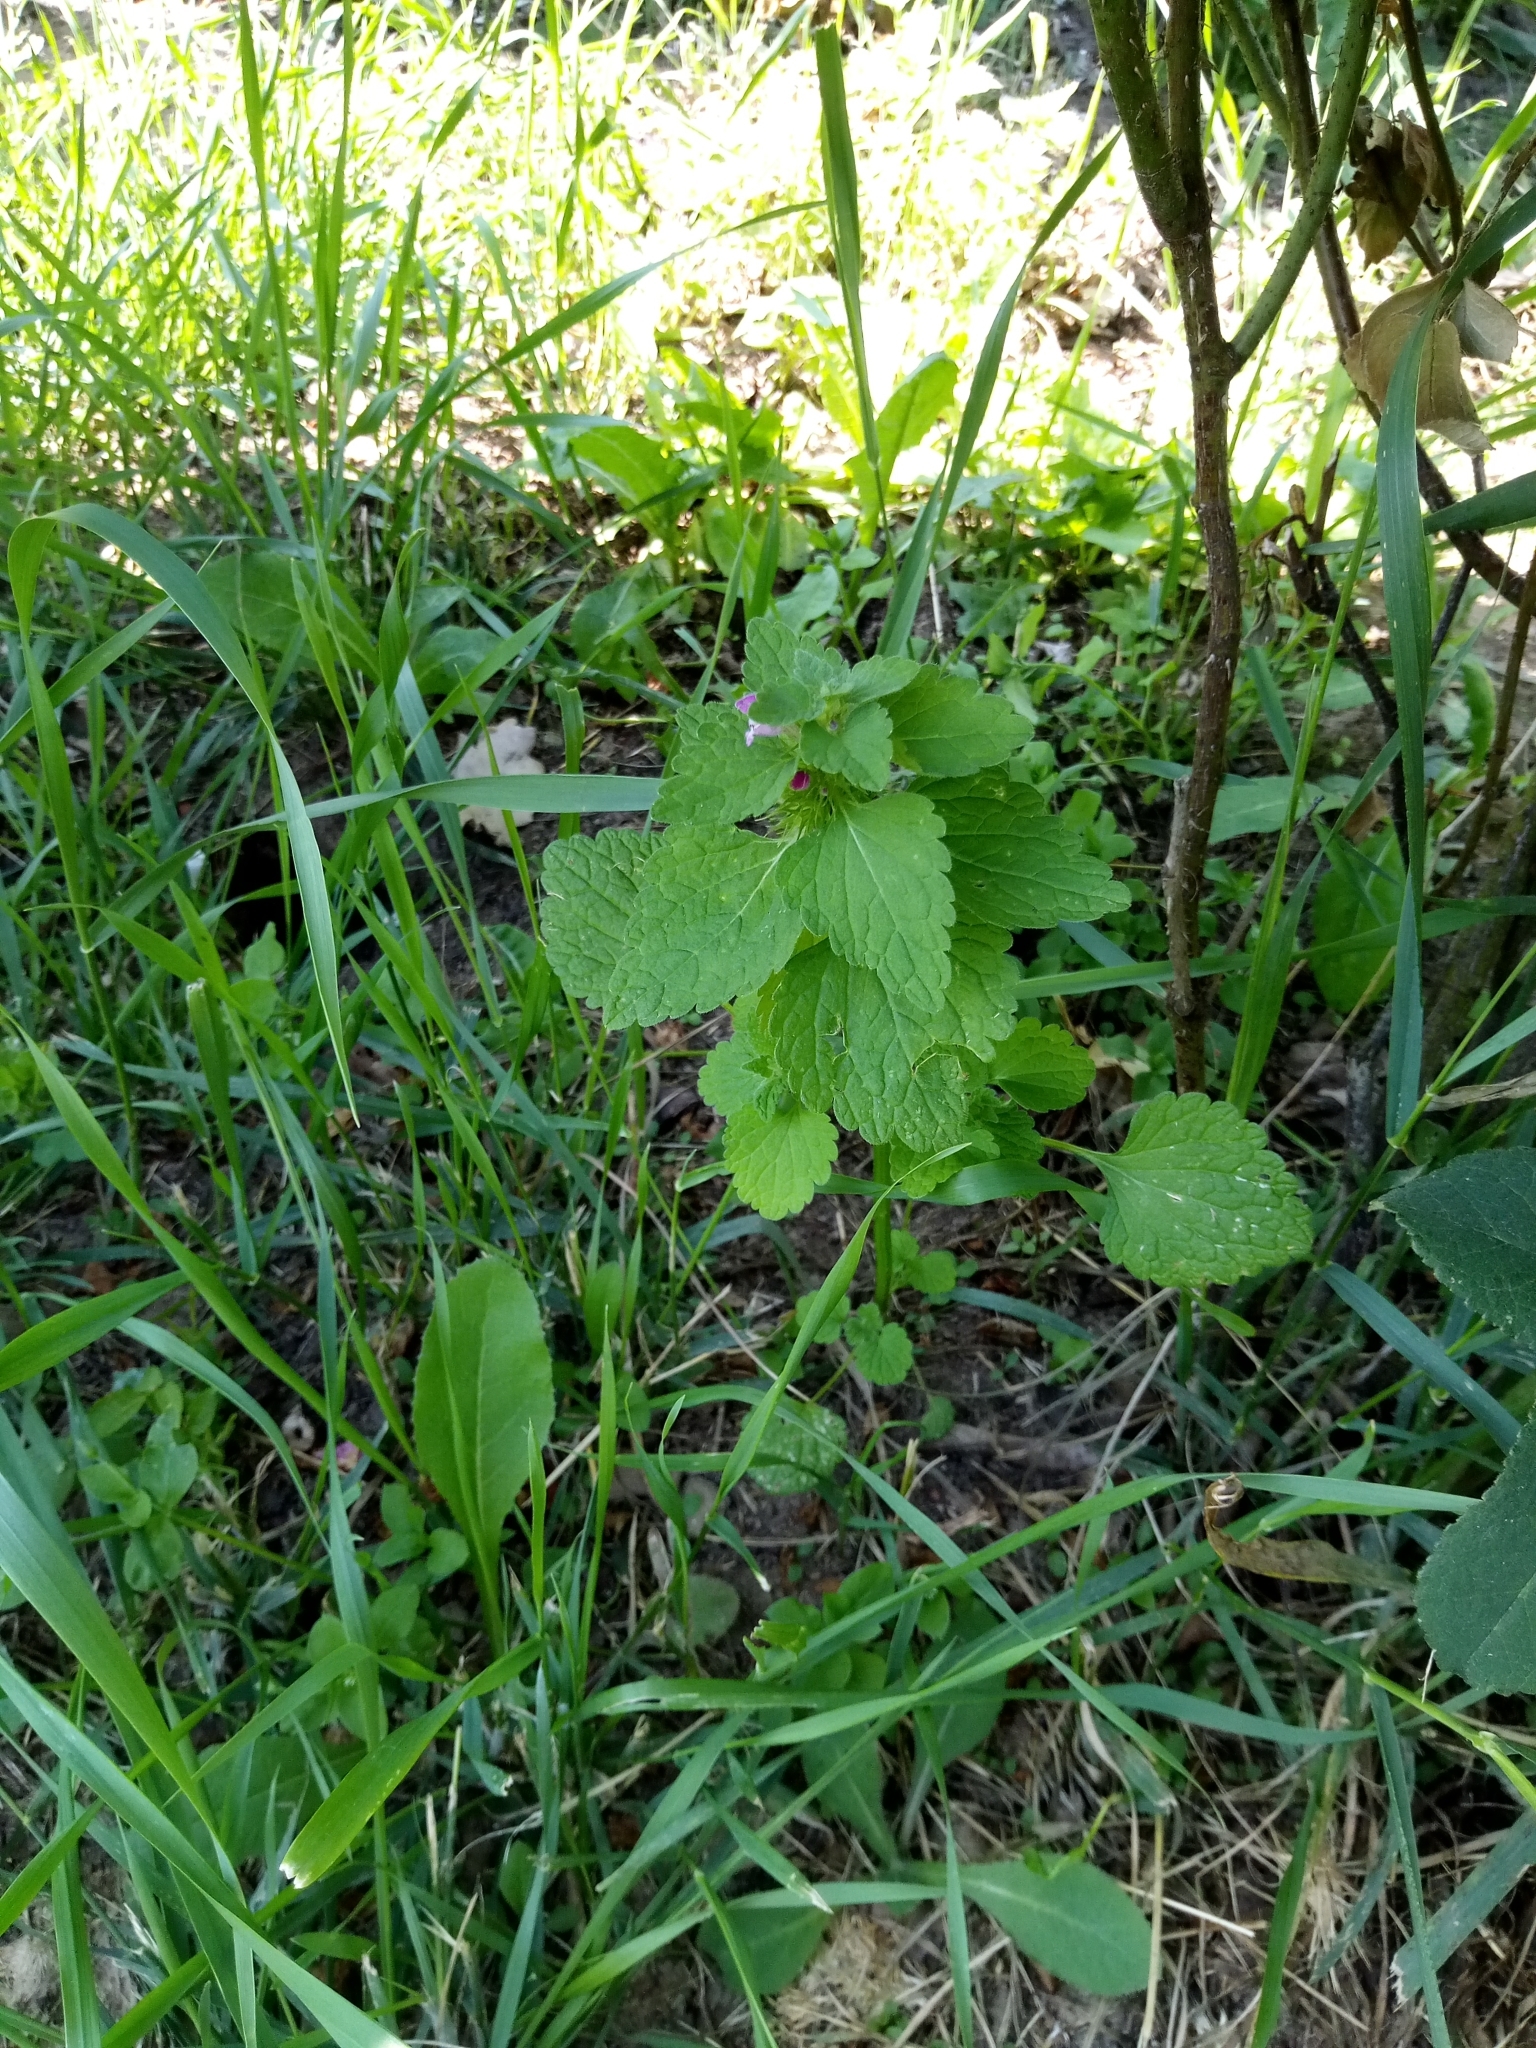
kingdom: Plantae
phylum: Tracheophyta
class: Magnoliopsida
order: Lamiales
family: Lamiaceae
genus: Lamium
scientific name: Lamium purpureum
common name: Red dead-nettle
